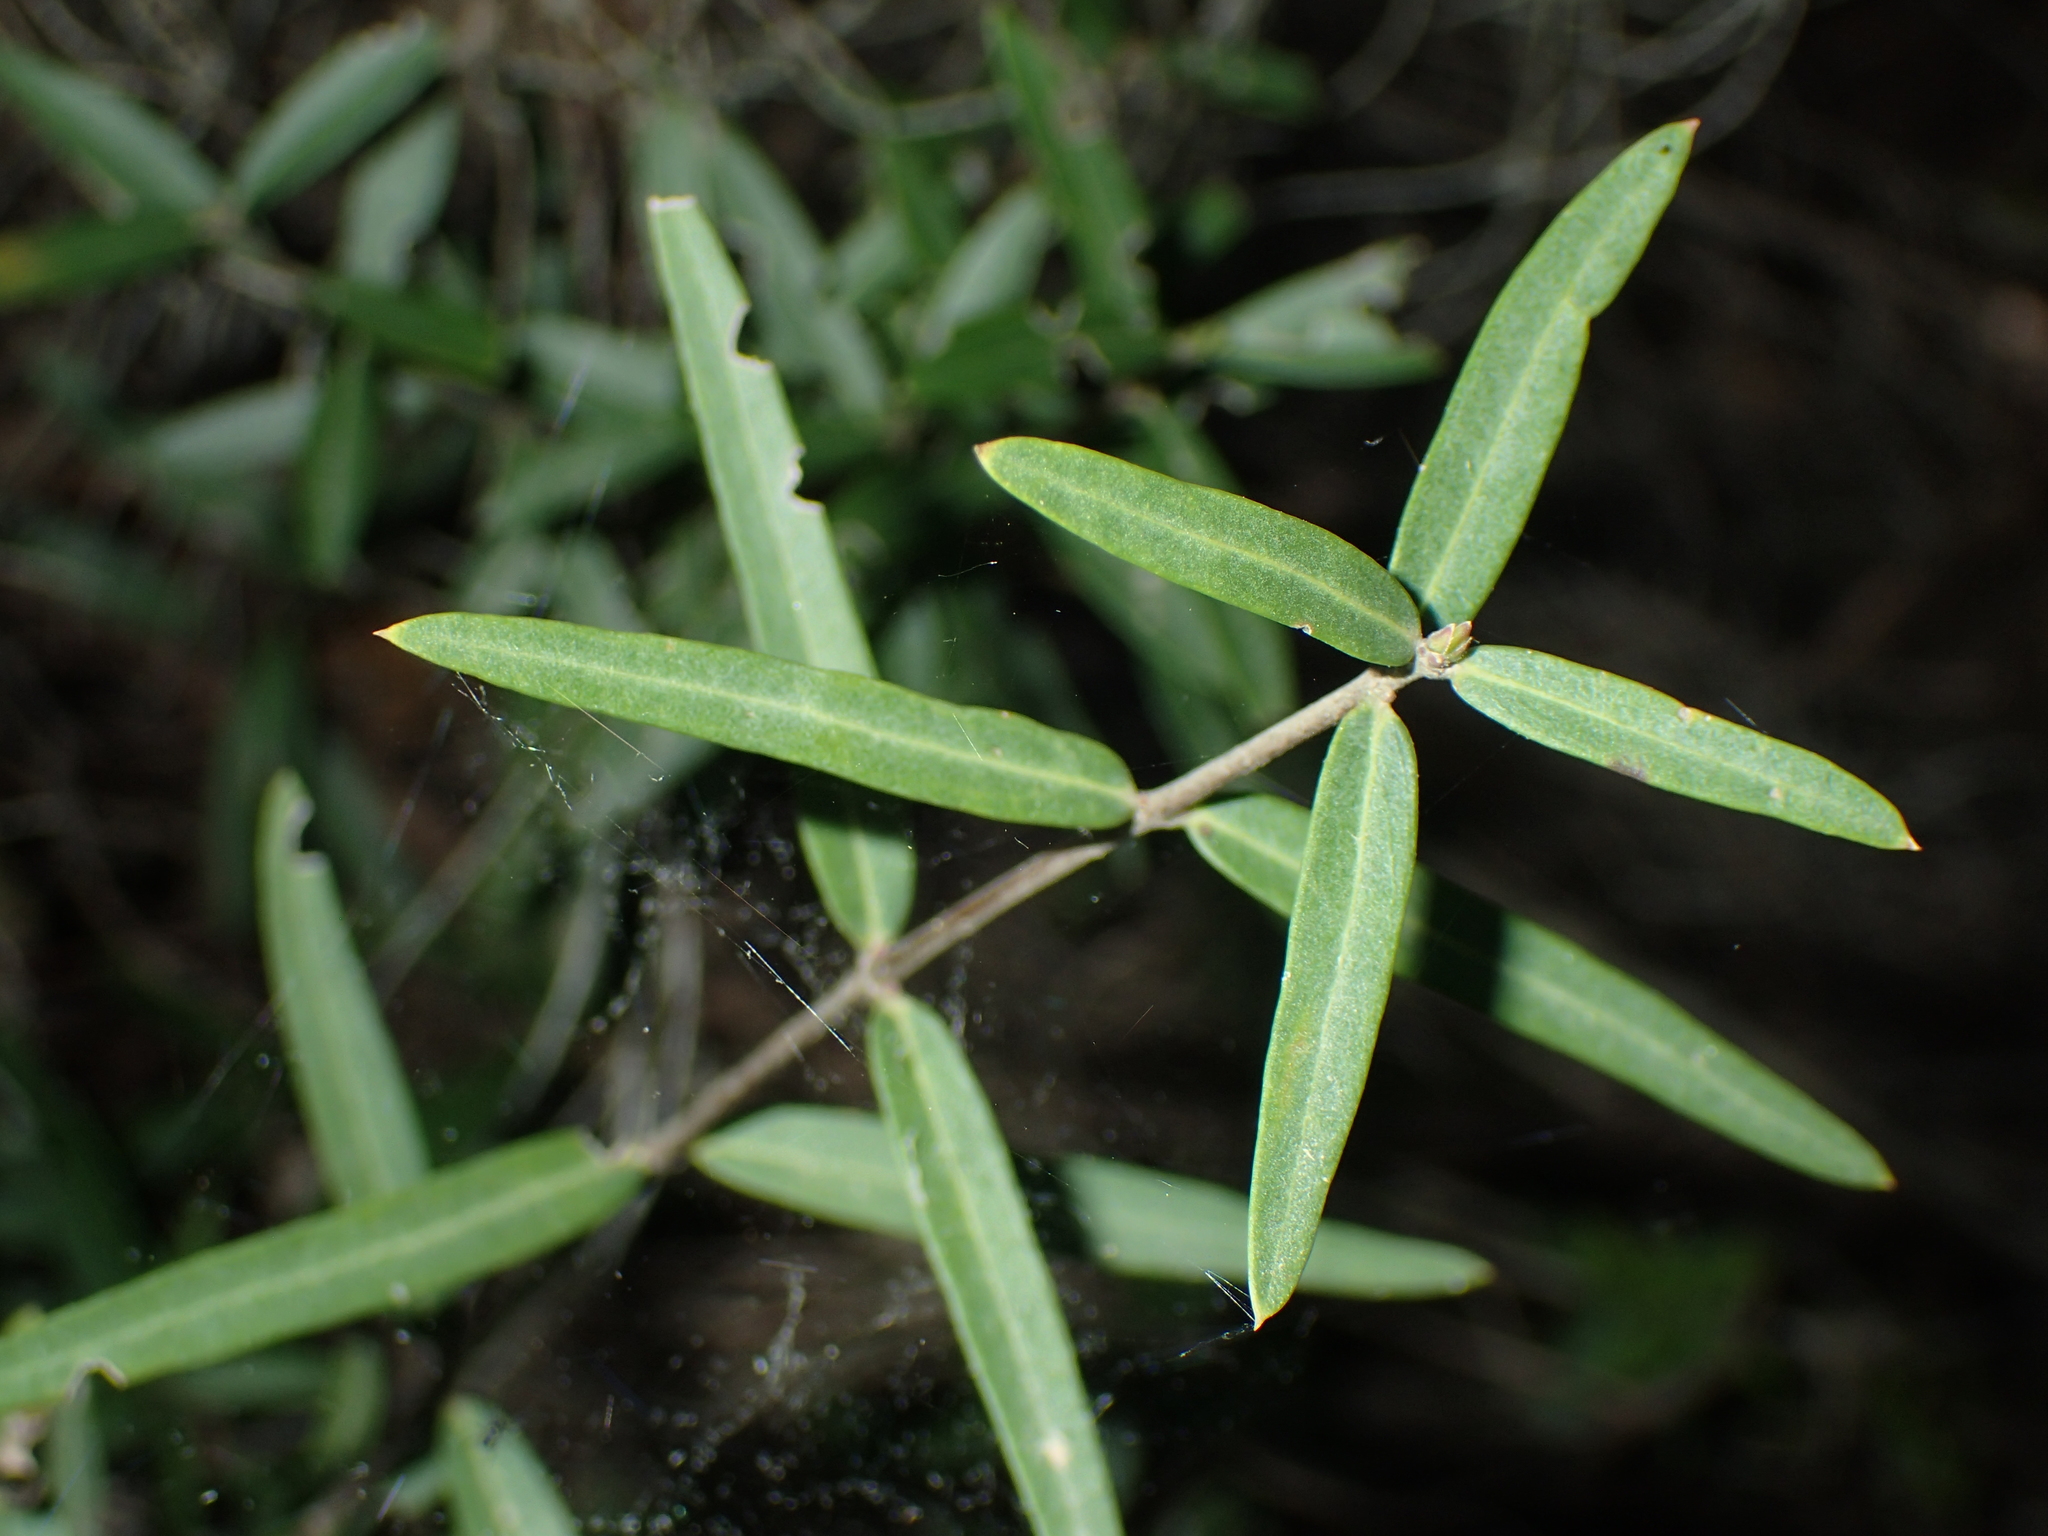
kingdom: Plantae
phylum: Tracheophyta
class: Magnoliopsida
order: Lamiales
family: Oleaceae
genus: Phillyrea
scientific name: Phillyrea angustifolia
